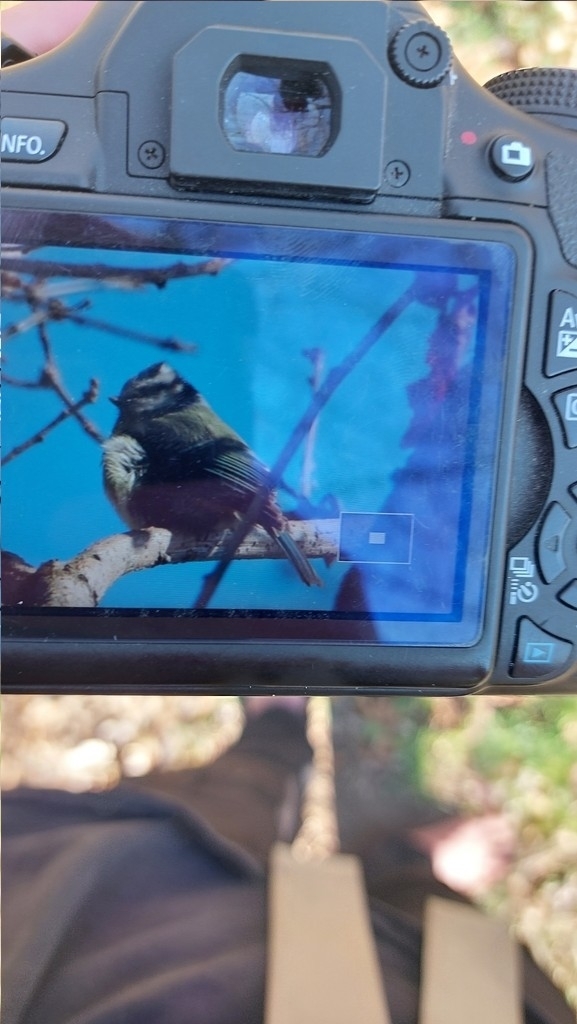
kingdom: Animalia
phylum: Chordata
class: Aves
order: Passeriformes
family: Paridae
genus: Cyanistes
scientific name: Cyanistes caeruleus
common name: Eurasian blue tit
